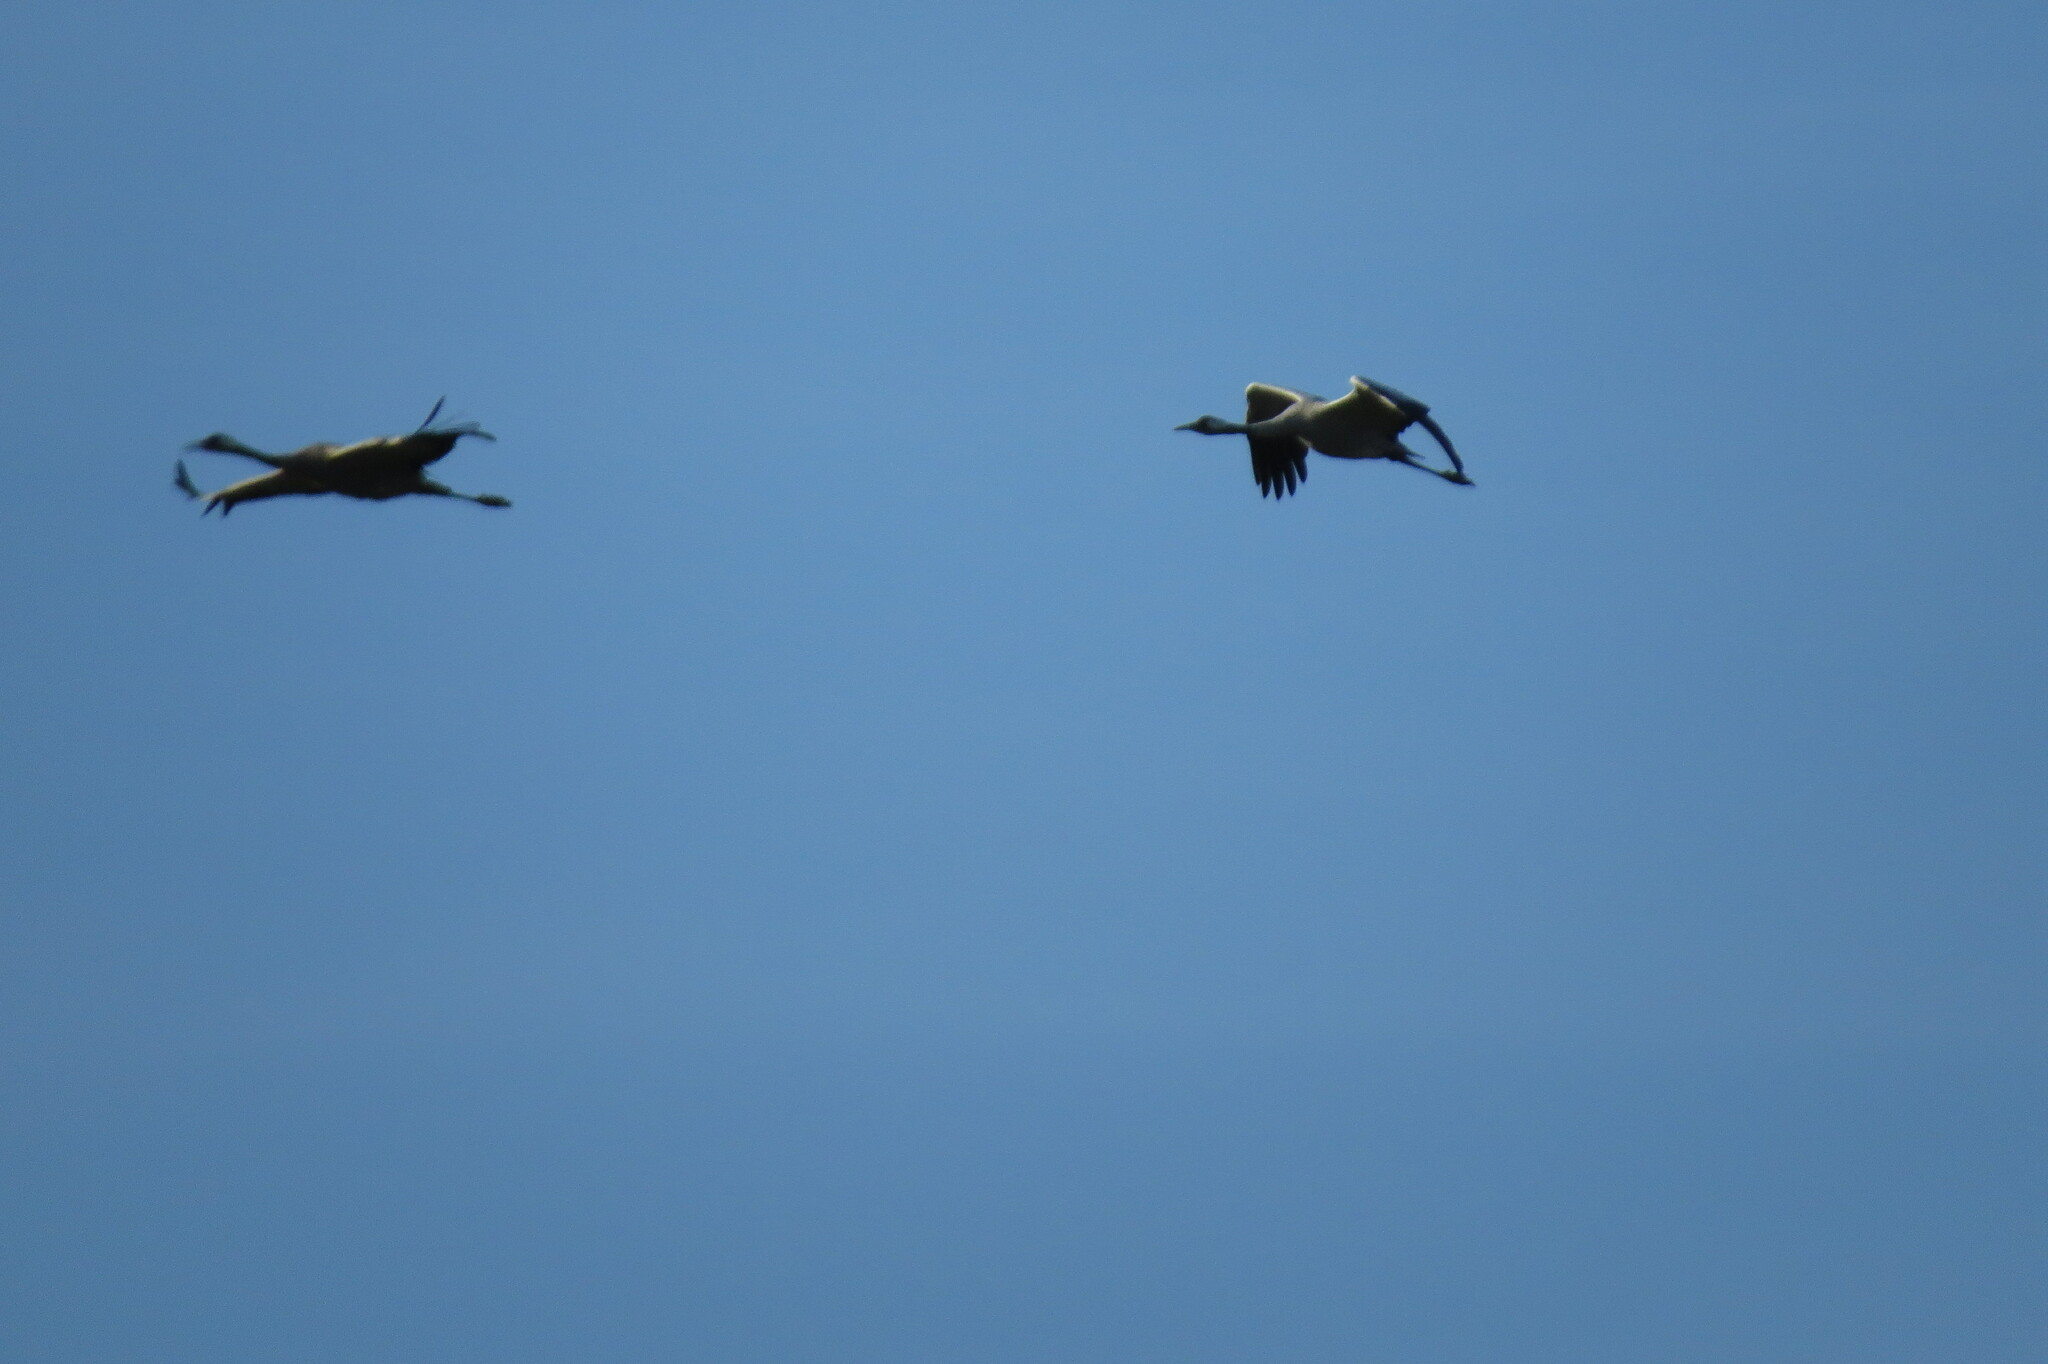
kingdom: Animalia
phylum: Chordata
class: Aves
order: Gruiformes
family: Gruidae
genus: Grus
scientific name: Grus grus
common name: Common crane
